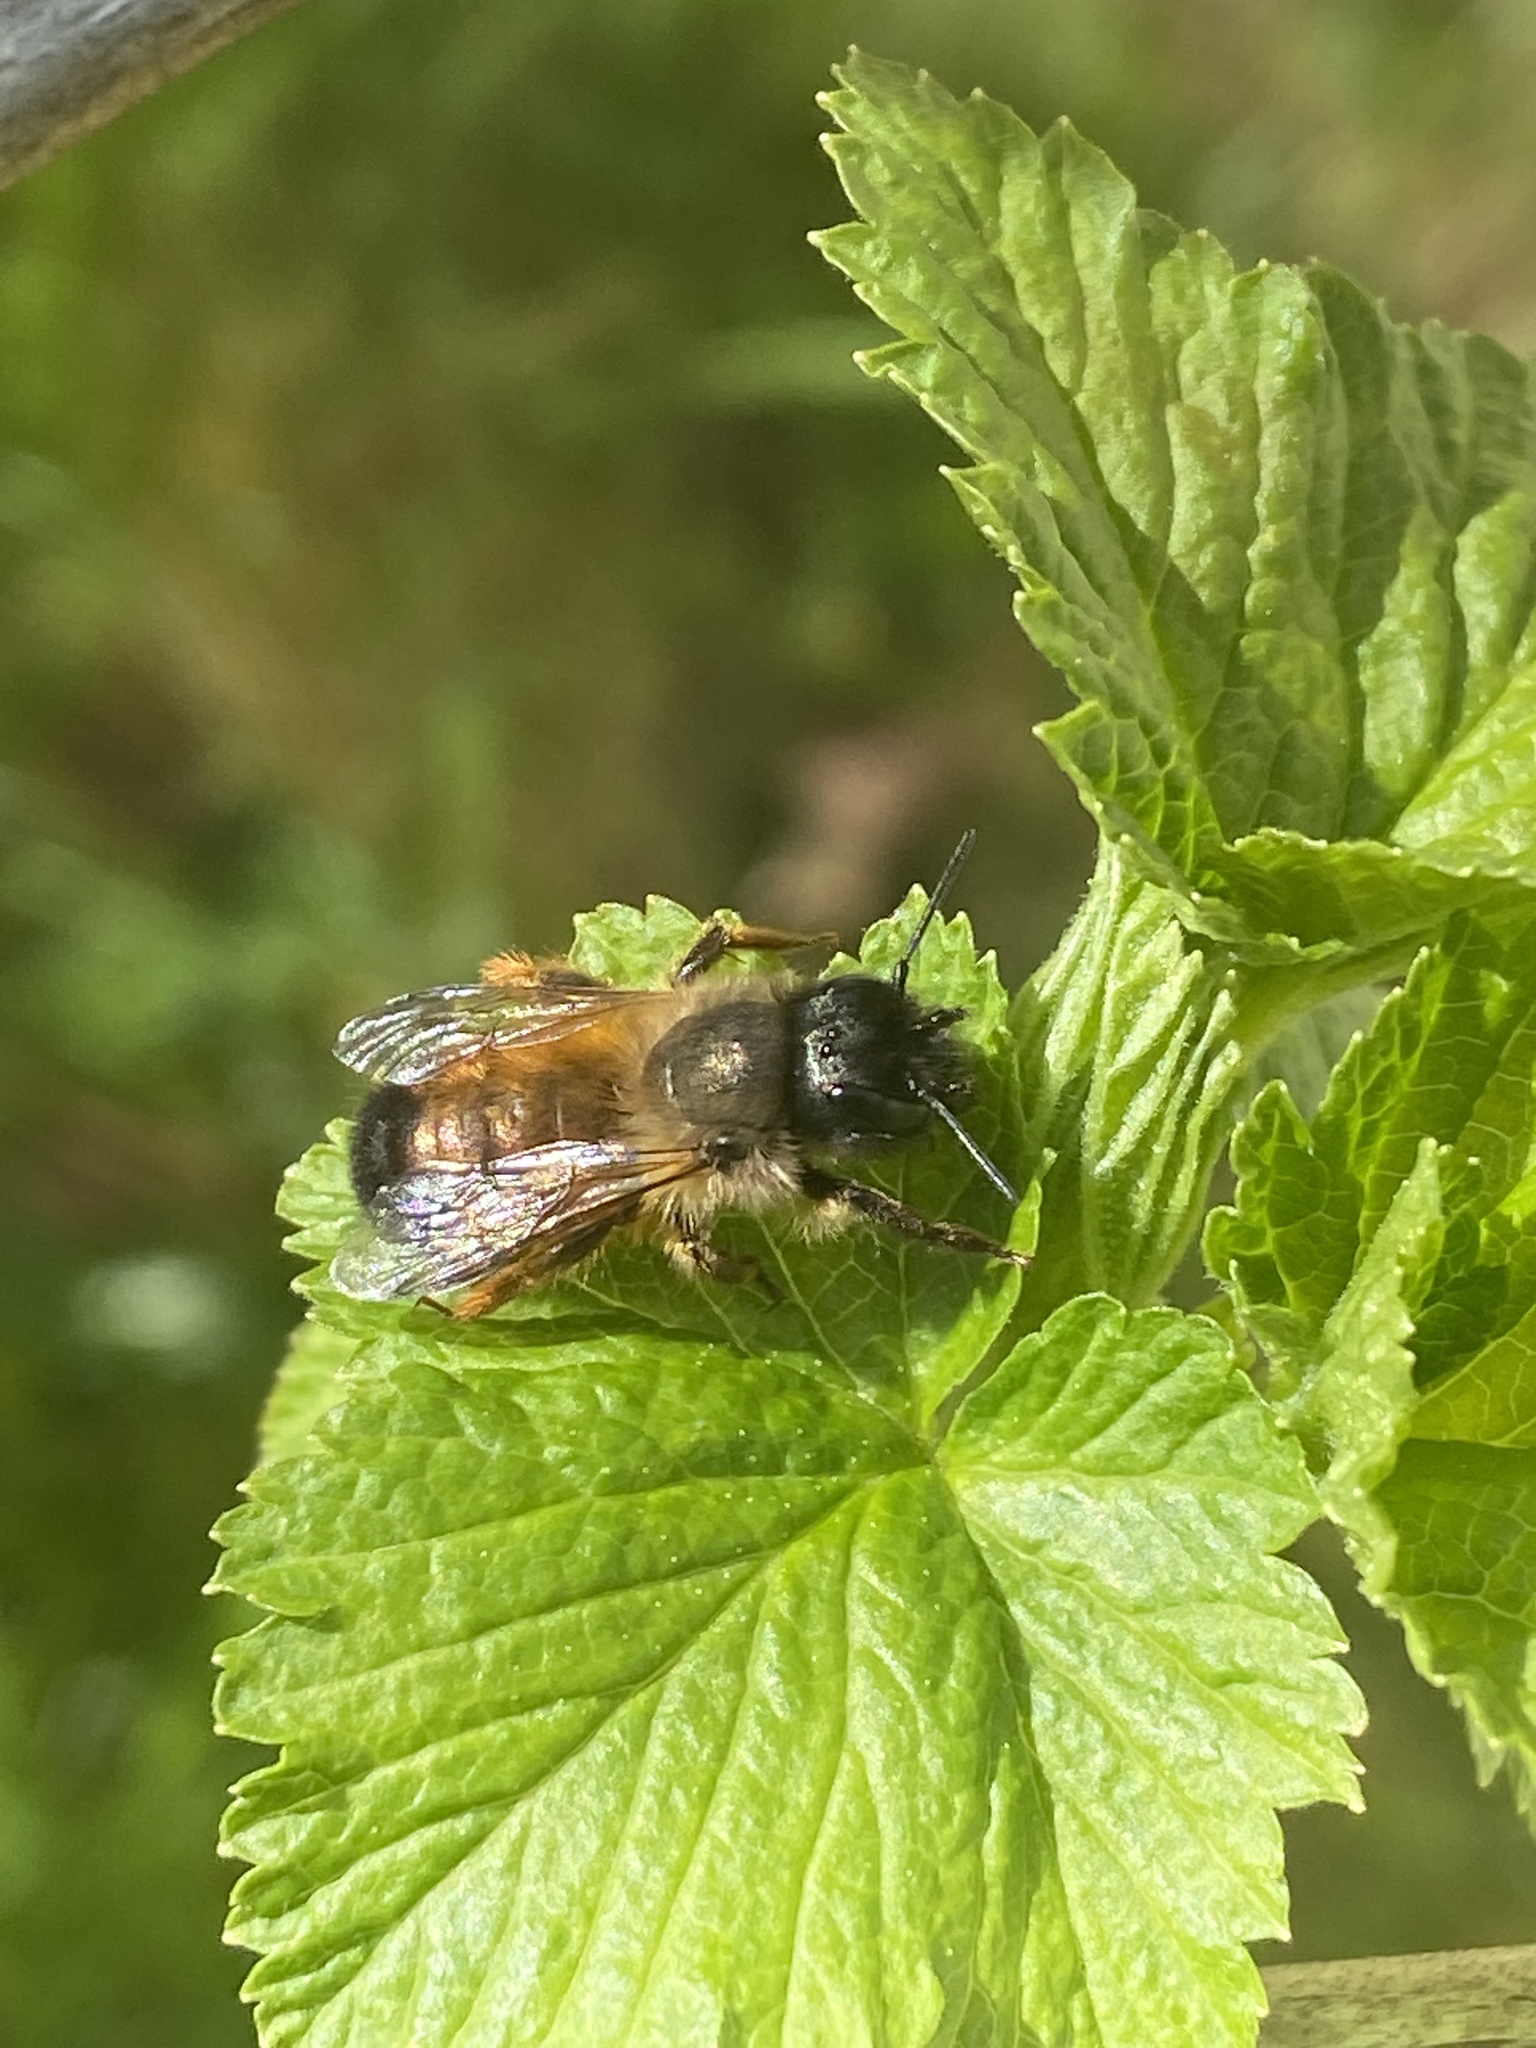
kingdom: Animalia
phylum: Arthropoda
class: Insecta
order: Hymenoptera
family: Megachilidae
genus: Osmia
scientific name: Osmia bicornis
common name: Red mason bee
